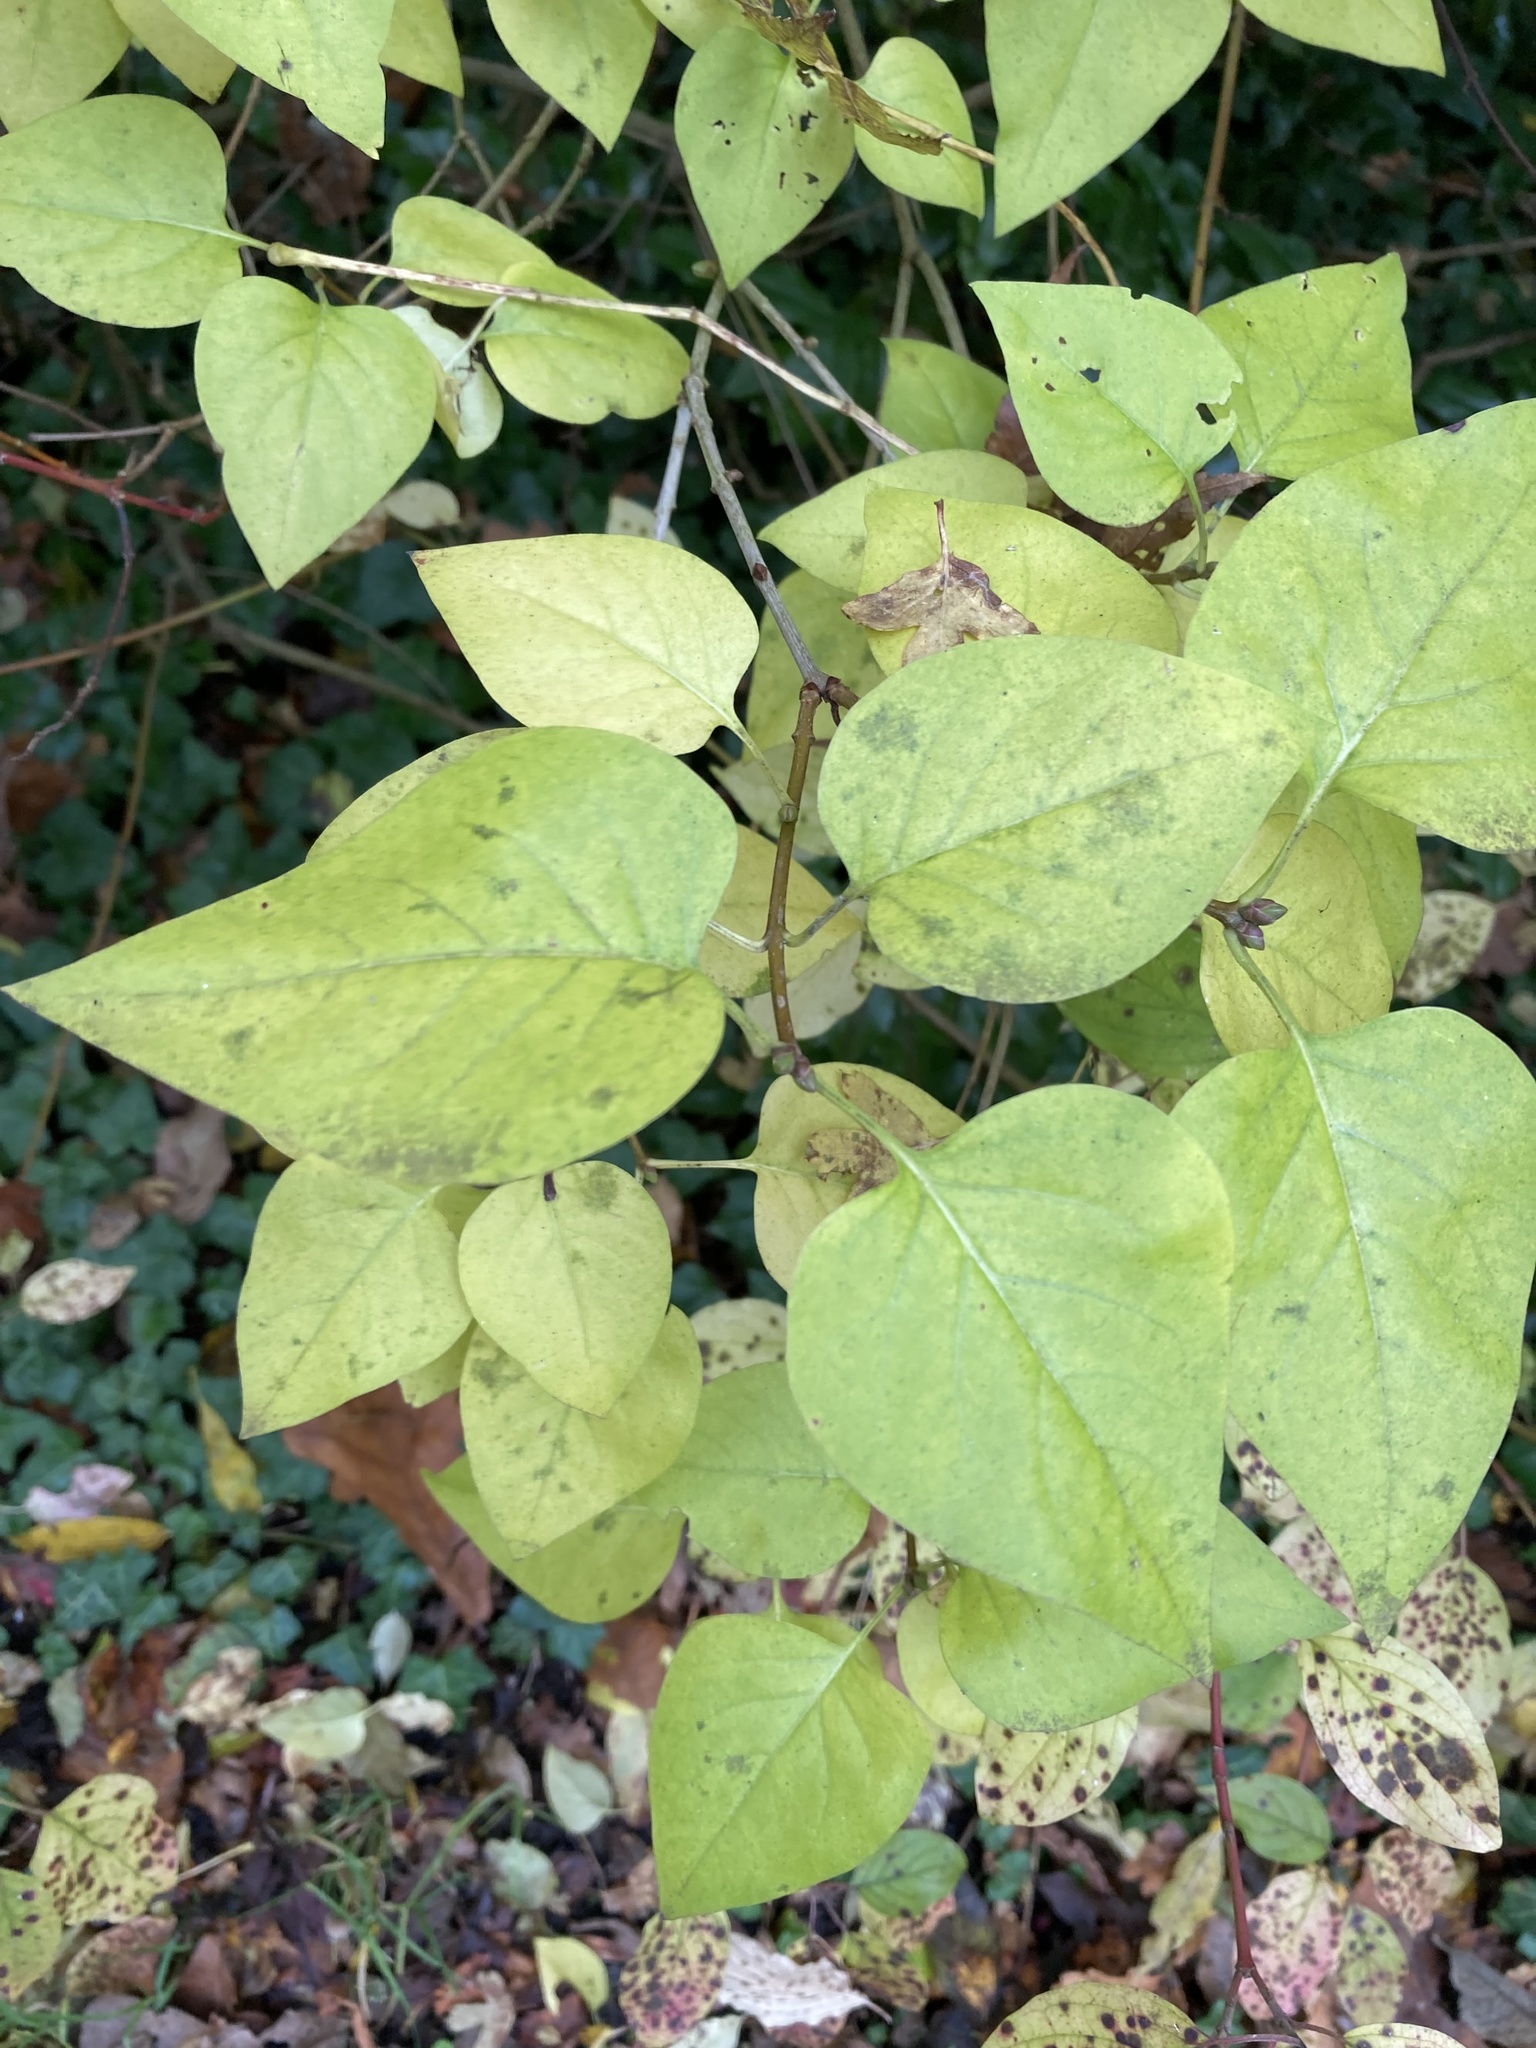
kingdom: Plantae
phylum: Tracheophyta
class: Magnoliopsida
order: Lamiales
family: Oleaceae
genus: Syringa
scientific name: Syringa vulgaris
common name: Common lilac
